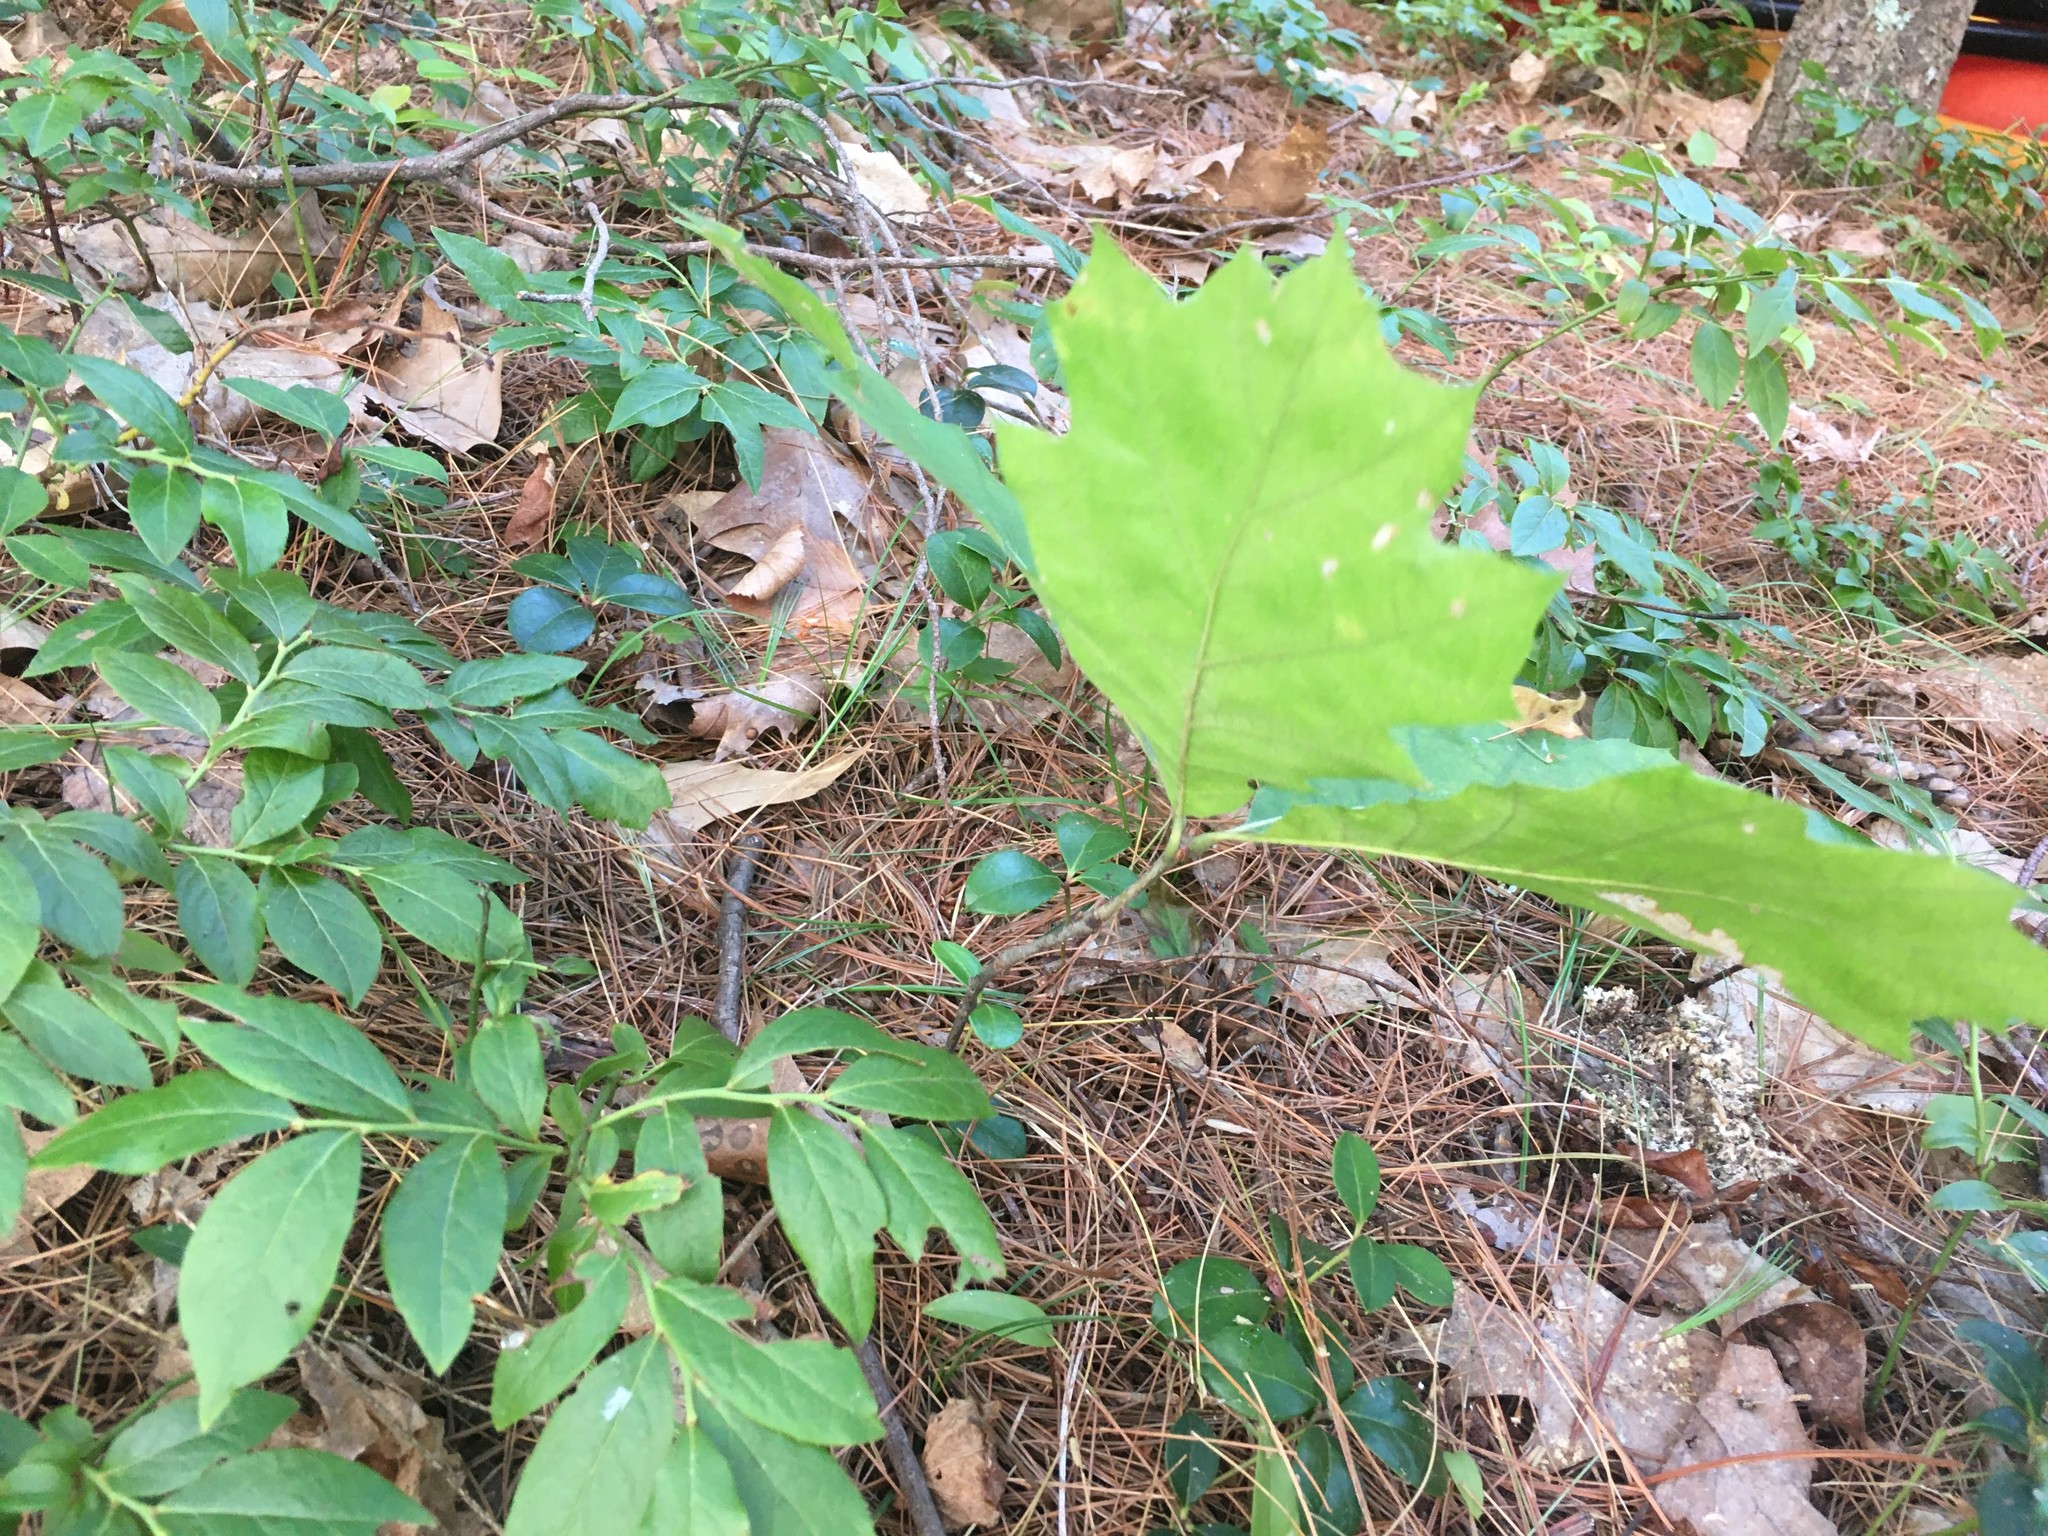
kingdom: Plantae
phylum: Tracheophyta
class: Magnoliopsida
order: Fagales
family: Fagaceae
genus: Quercus
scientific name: Quercus rubra
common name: Red oak
